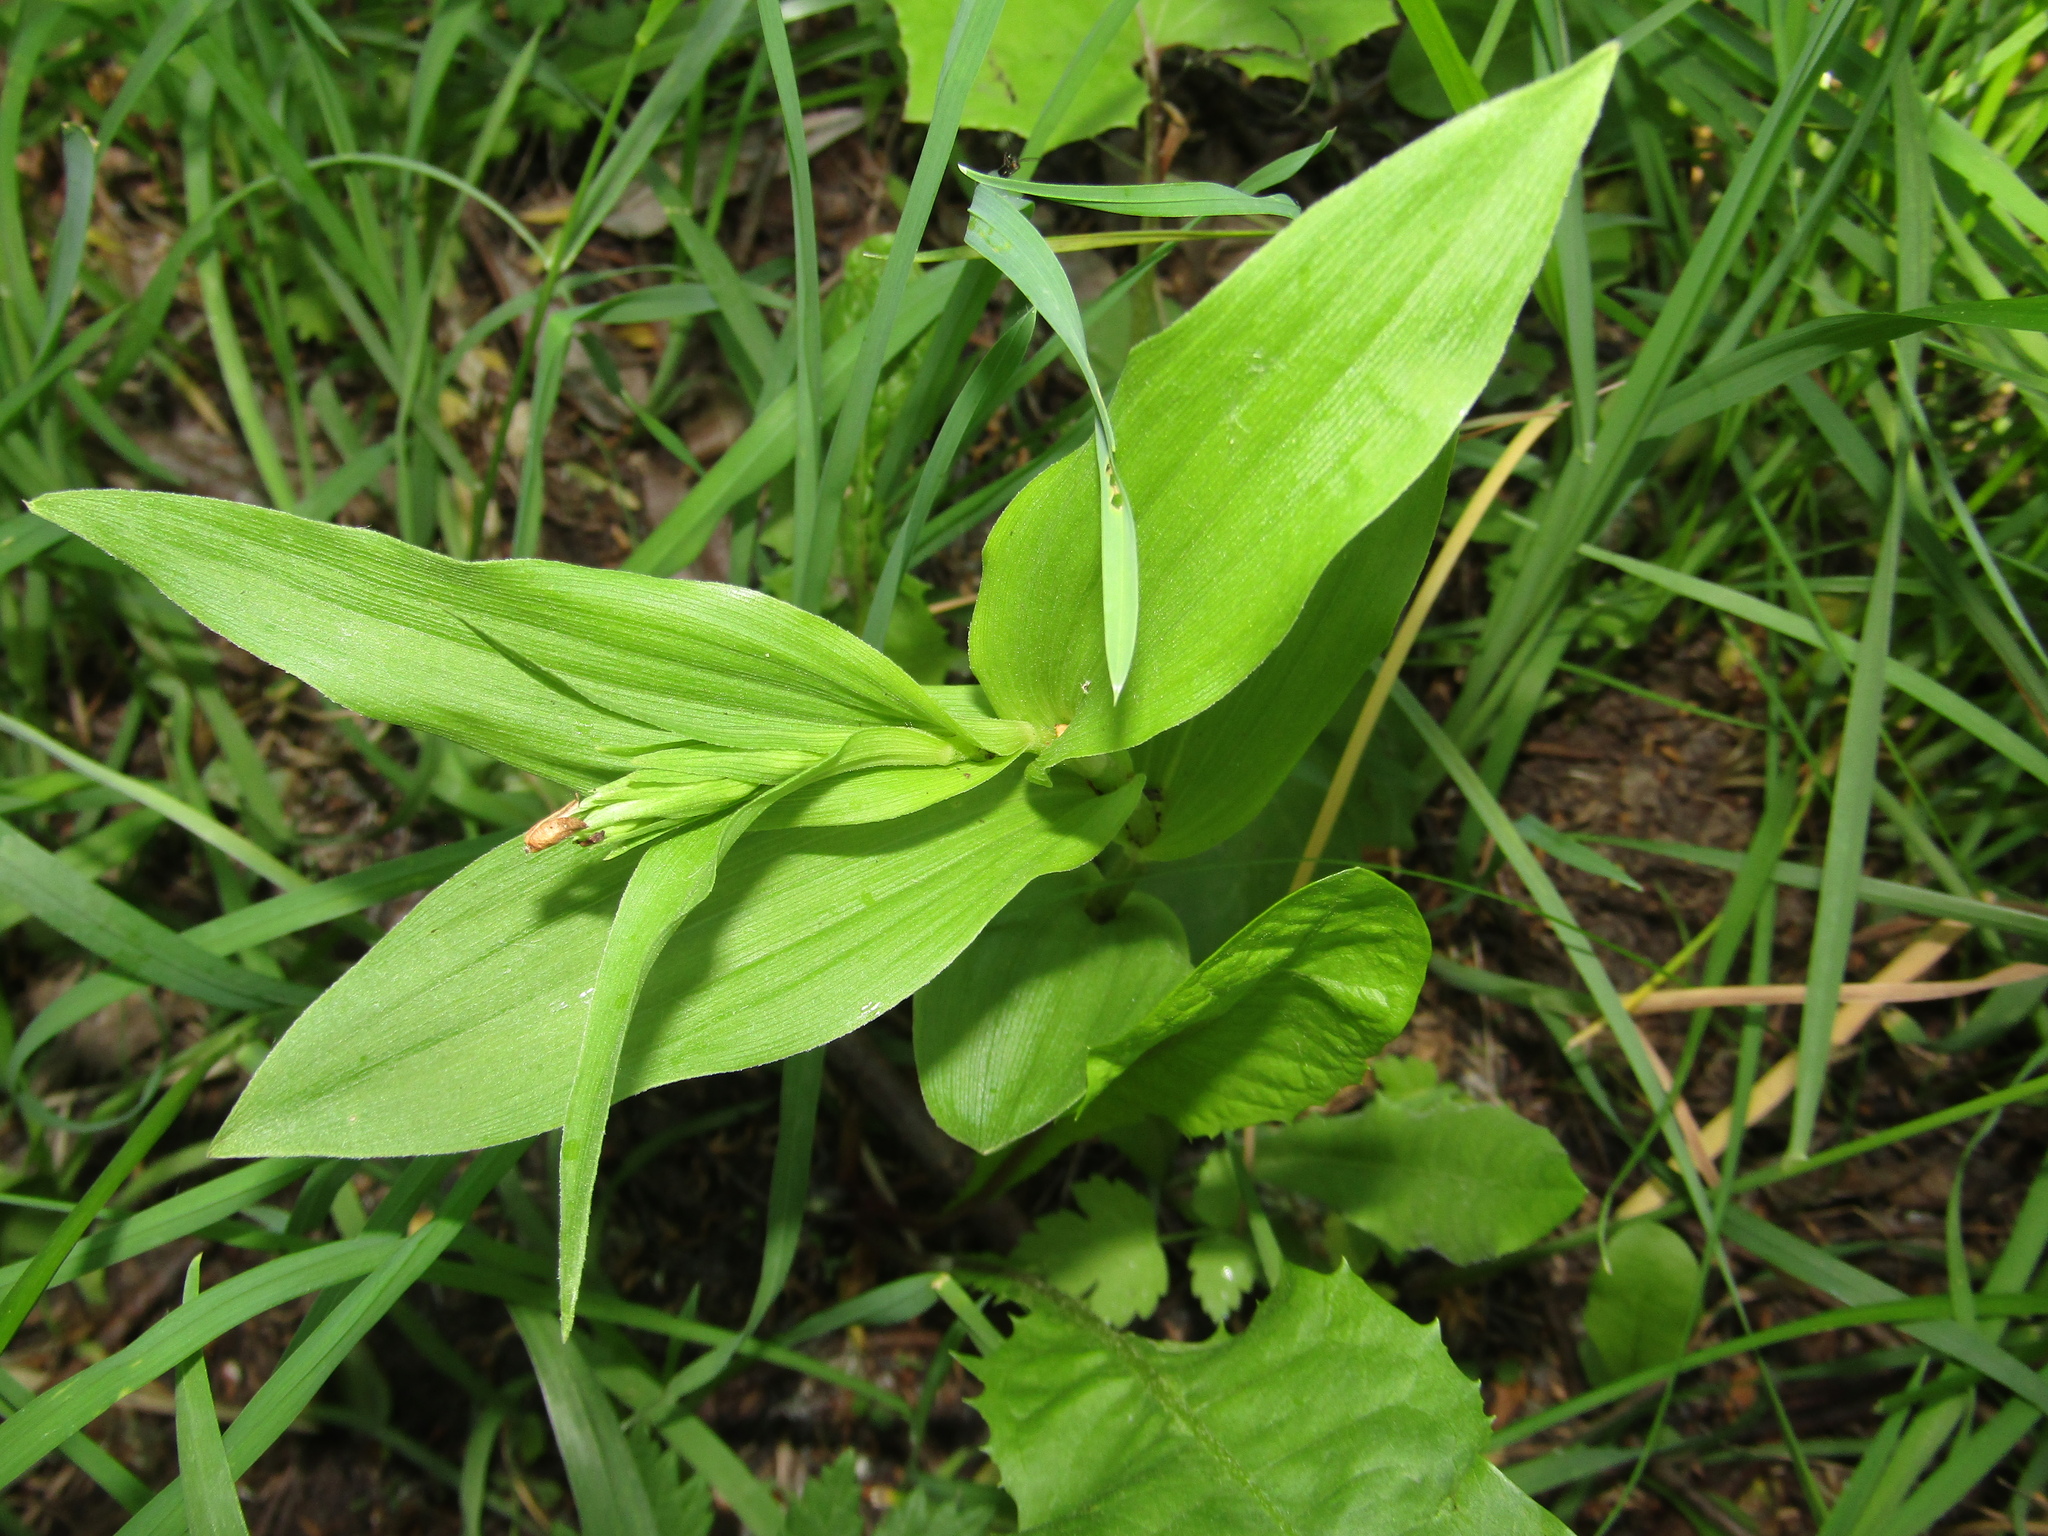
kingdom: Plantae
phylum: Tracheophyta
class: Liliopsida
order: Asparagales
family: Orchidaceae
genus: Epipactis
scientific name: Epipactis helleborine
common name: Broad-leaved helleborine
